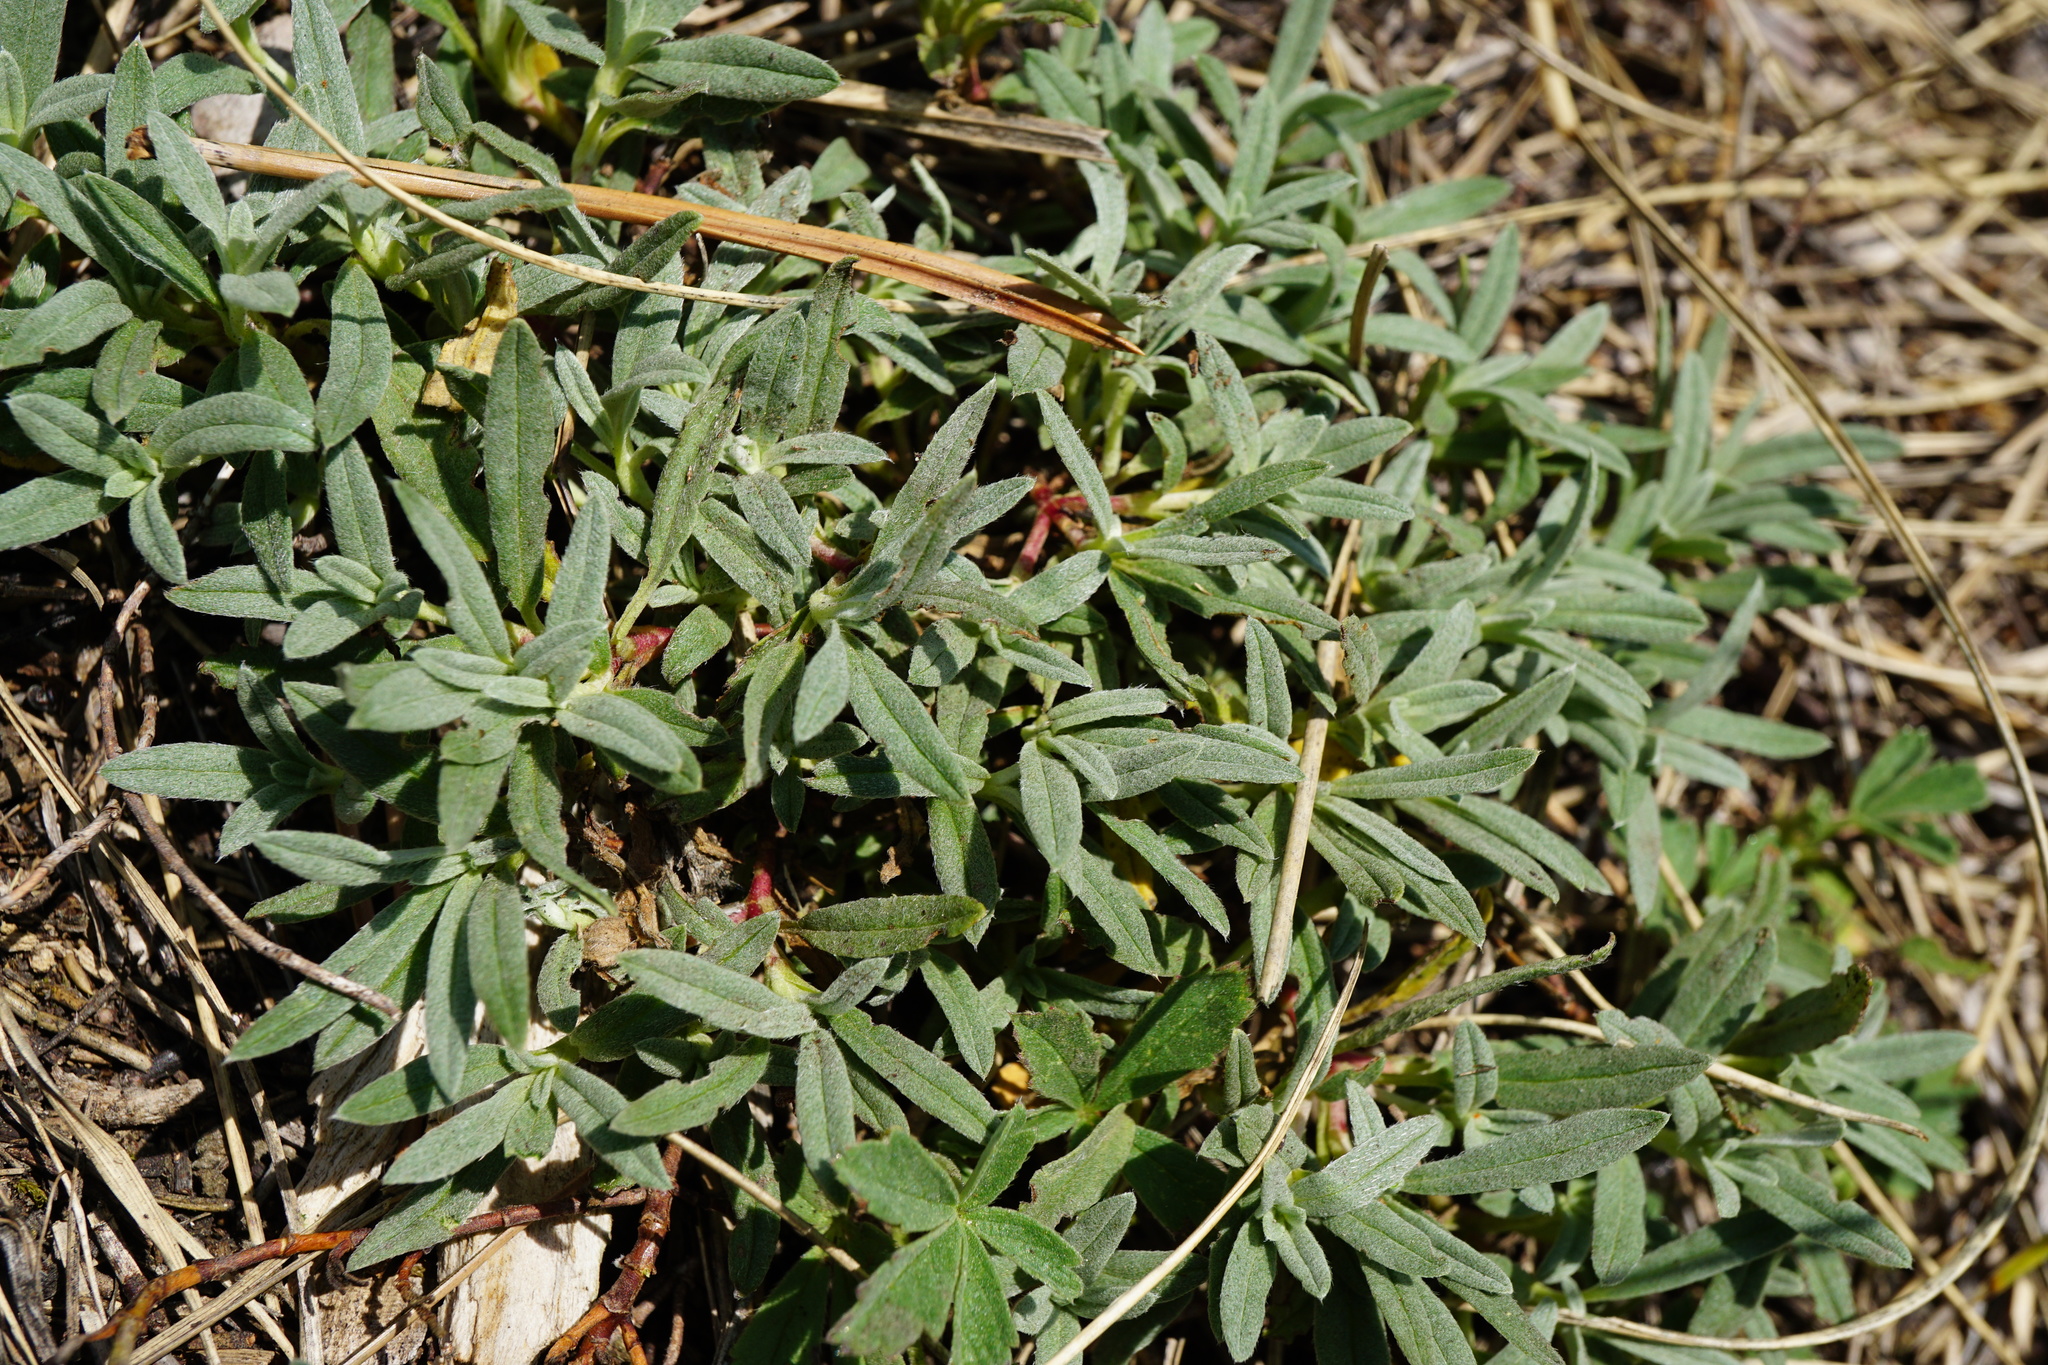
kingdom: Plantae
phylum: Tracheophyta
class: Magnoliopsida
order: Malvales
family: Cistaceae
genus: Helianthemum
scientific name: Helianthemum canum
